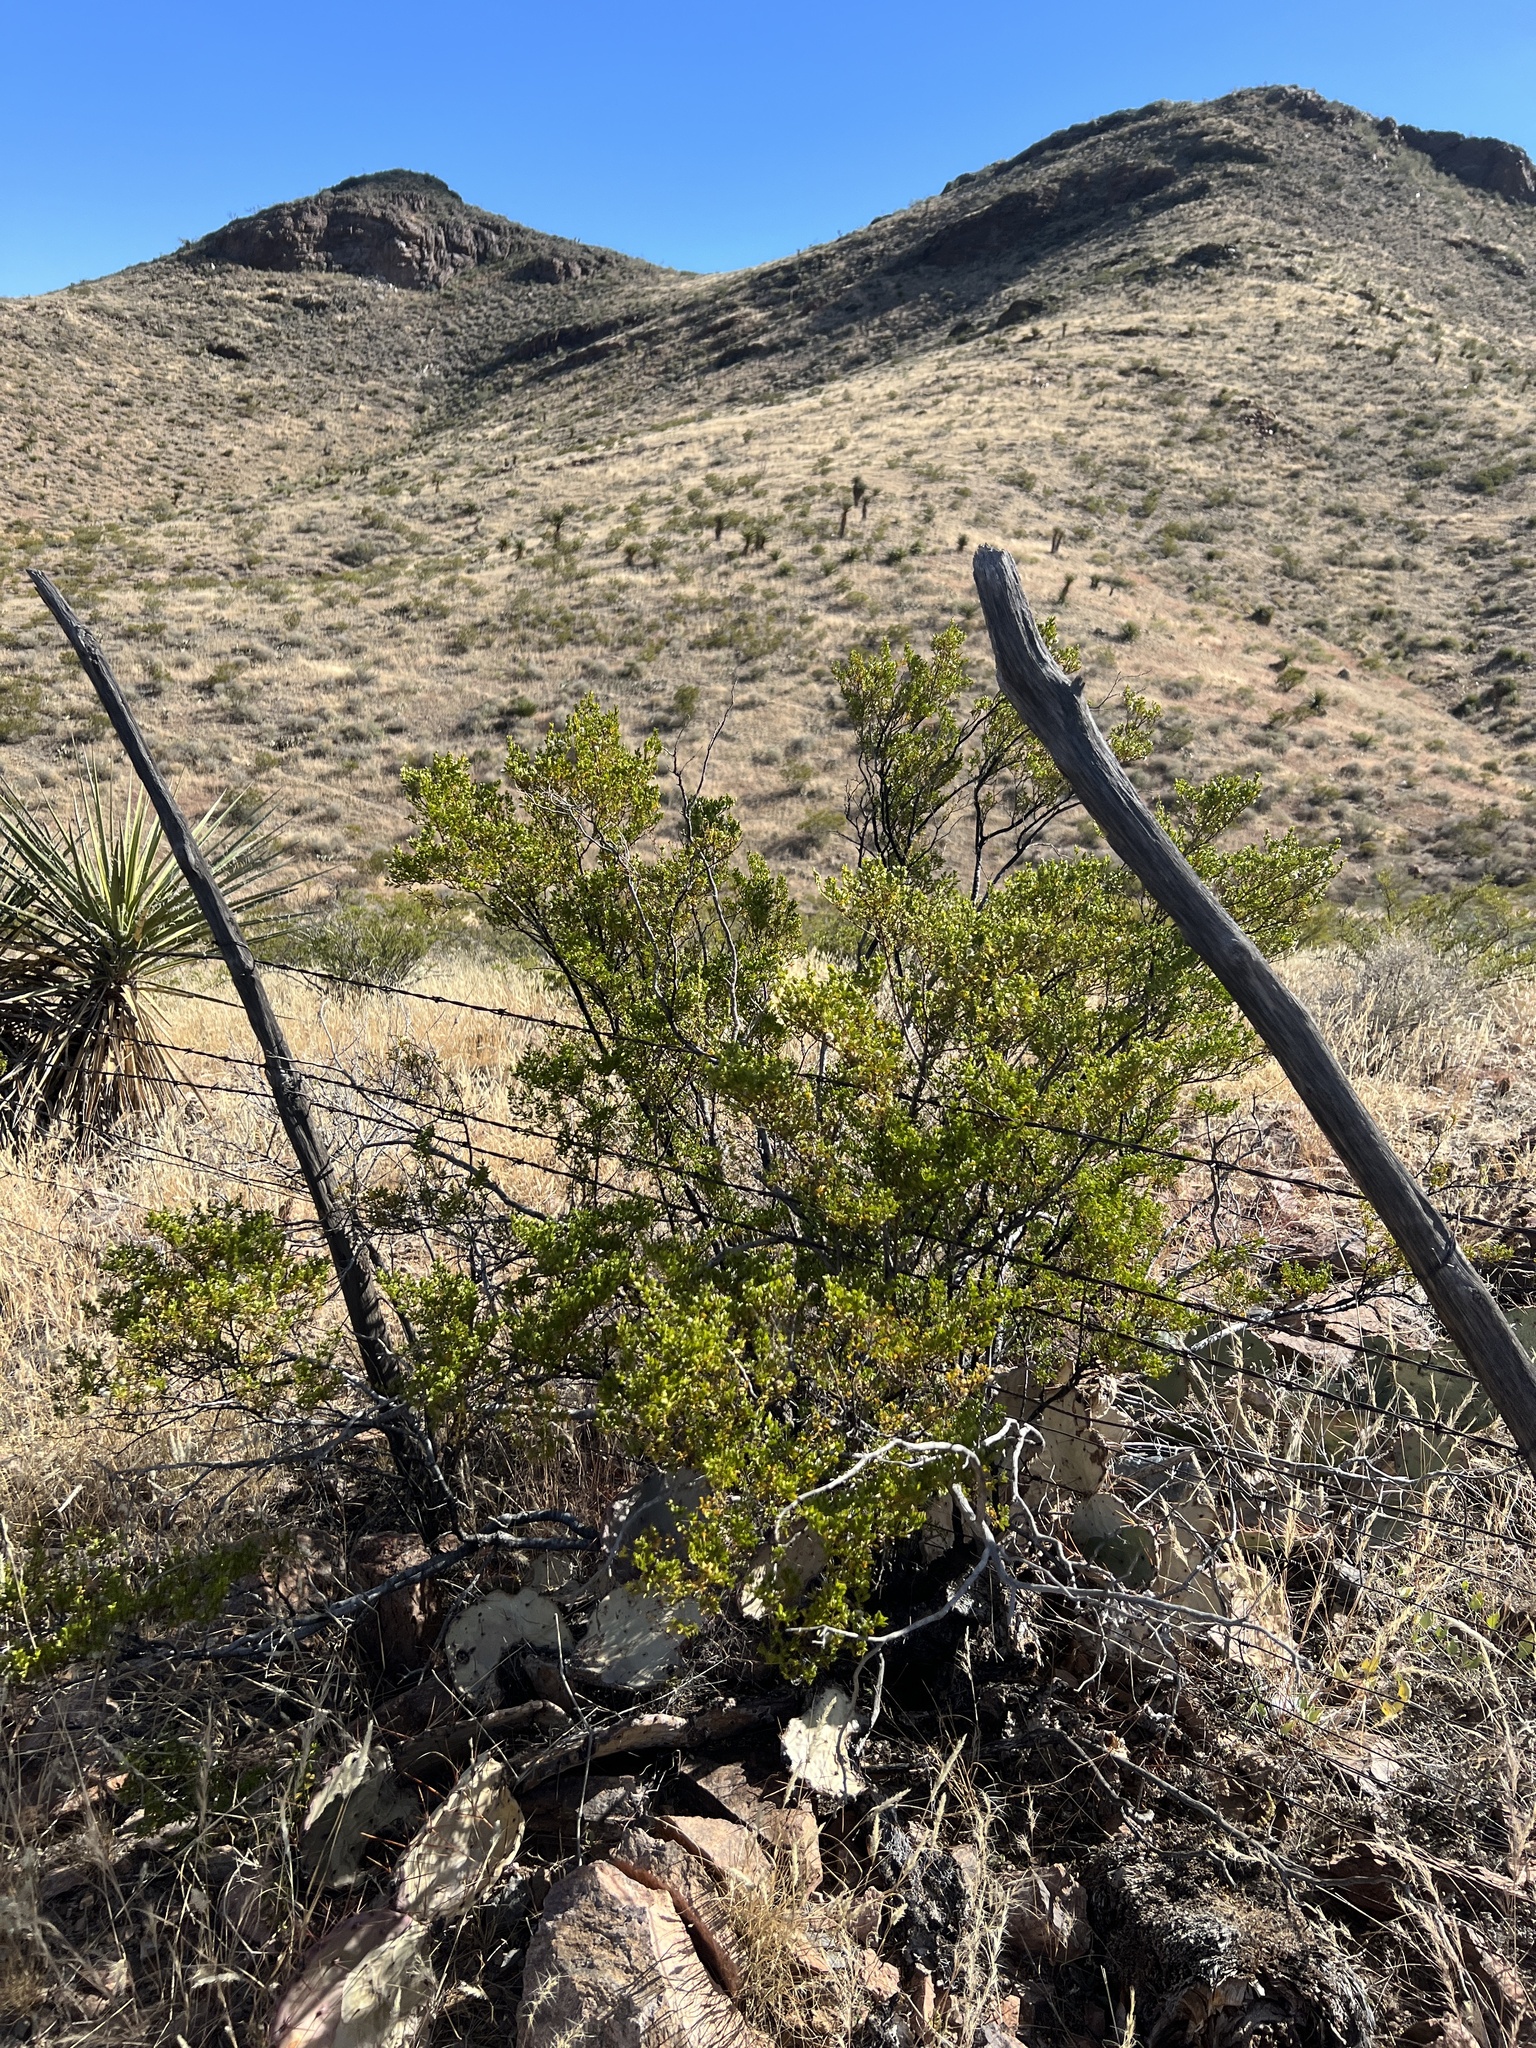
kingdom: Plantae
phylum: Tracheophyta
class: Magnoliopsida
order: Zygophyllales
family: Zygophyllaceae
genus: Larrea
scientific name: Larrea tridentata
